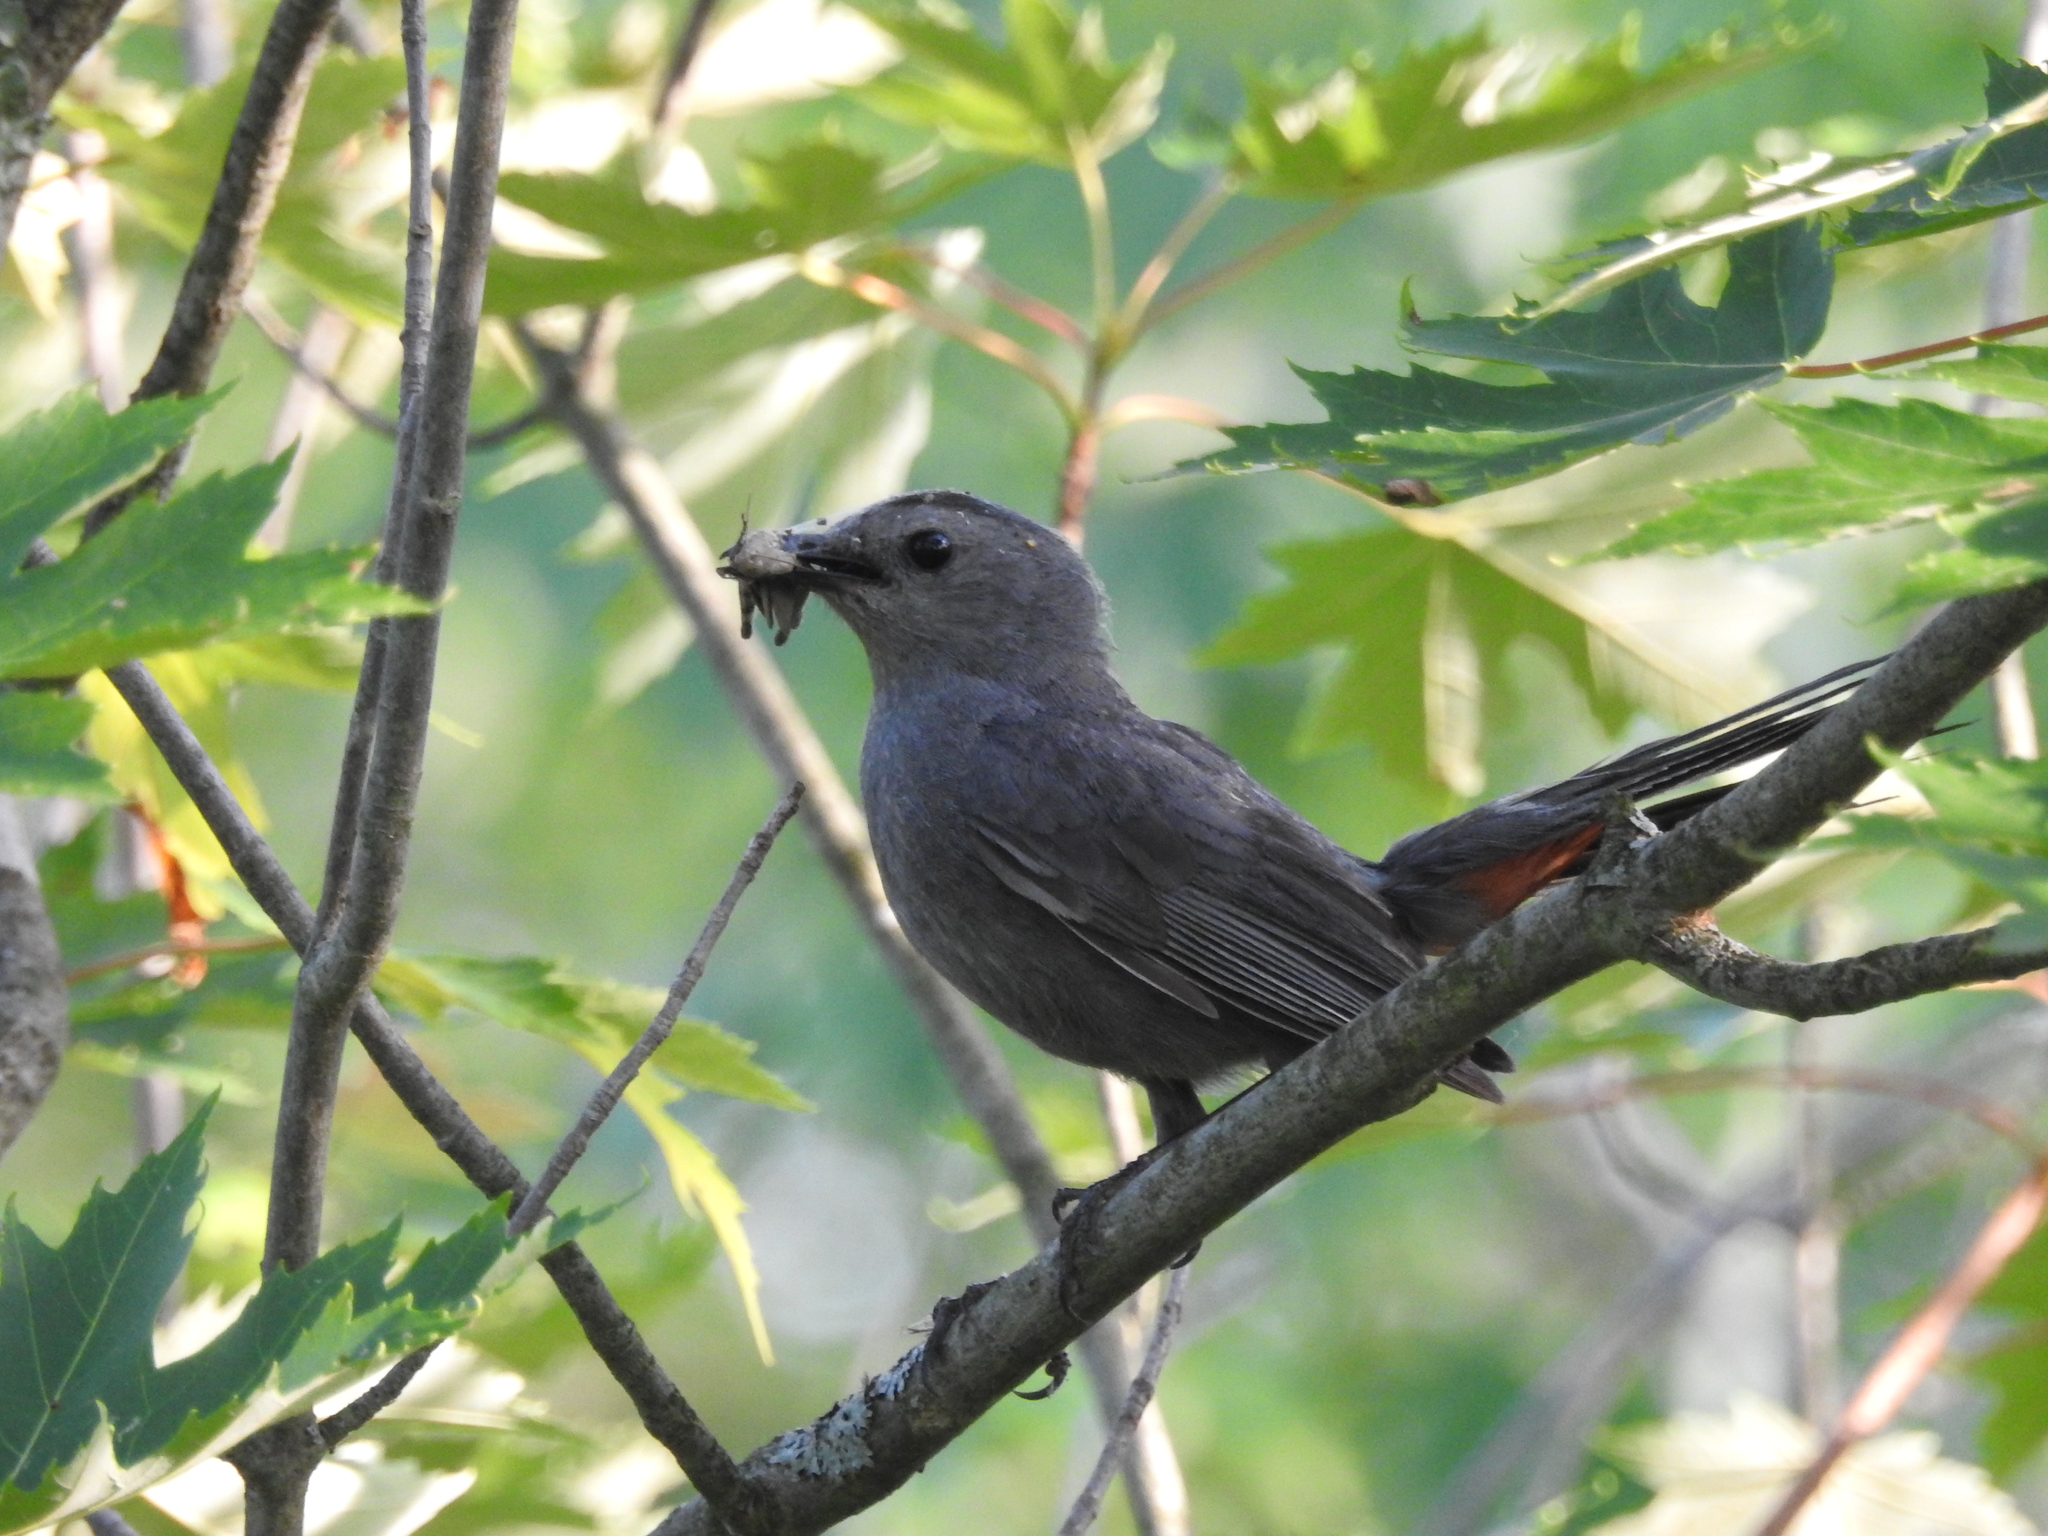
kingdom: Animalia
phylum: Chordata
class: Aves
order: Passeriformes
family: Mimidae
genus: Dumetella
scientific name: Dumetella carolinensis
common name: Gray catbird
